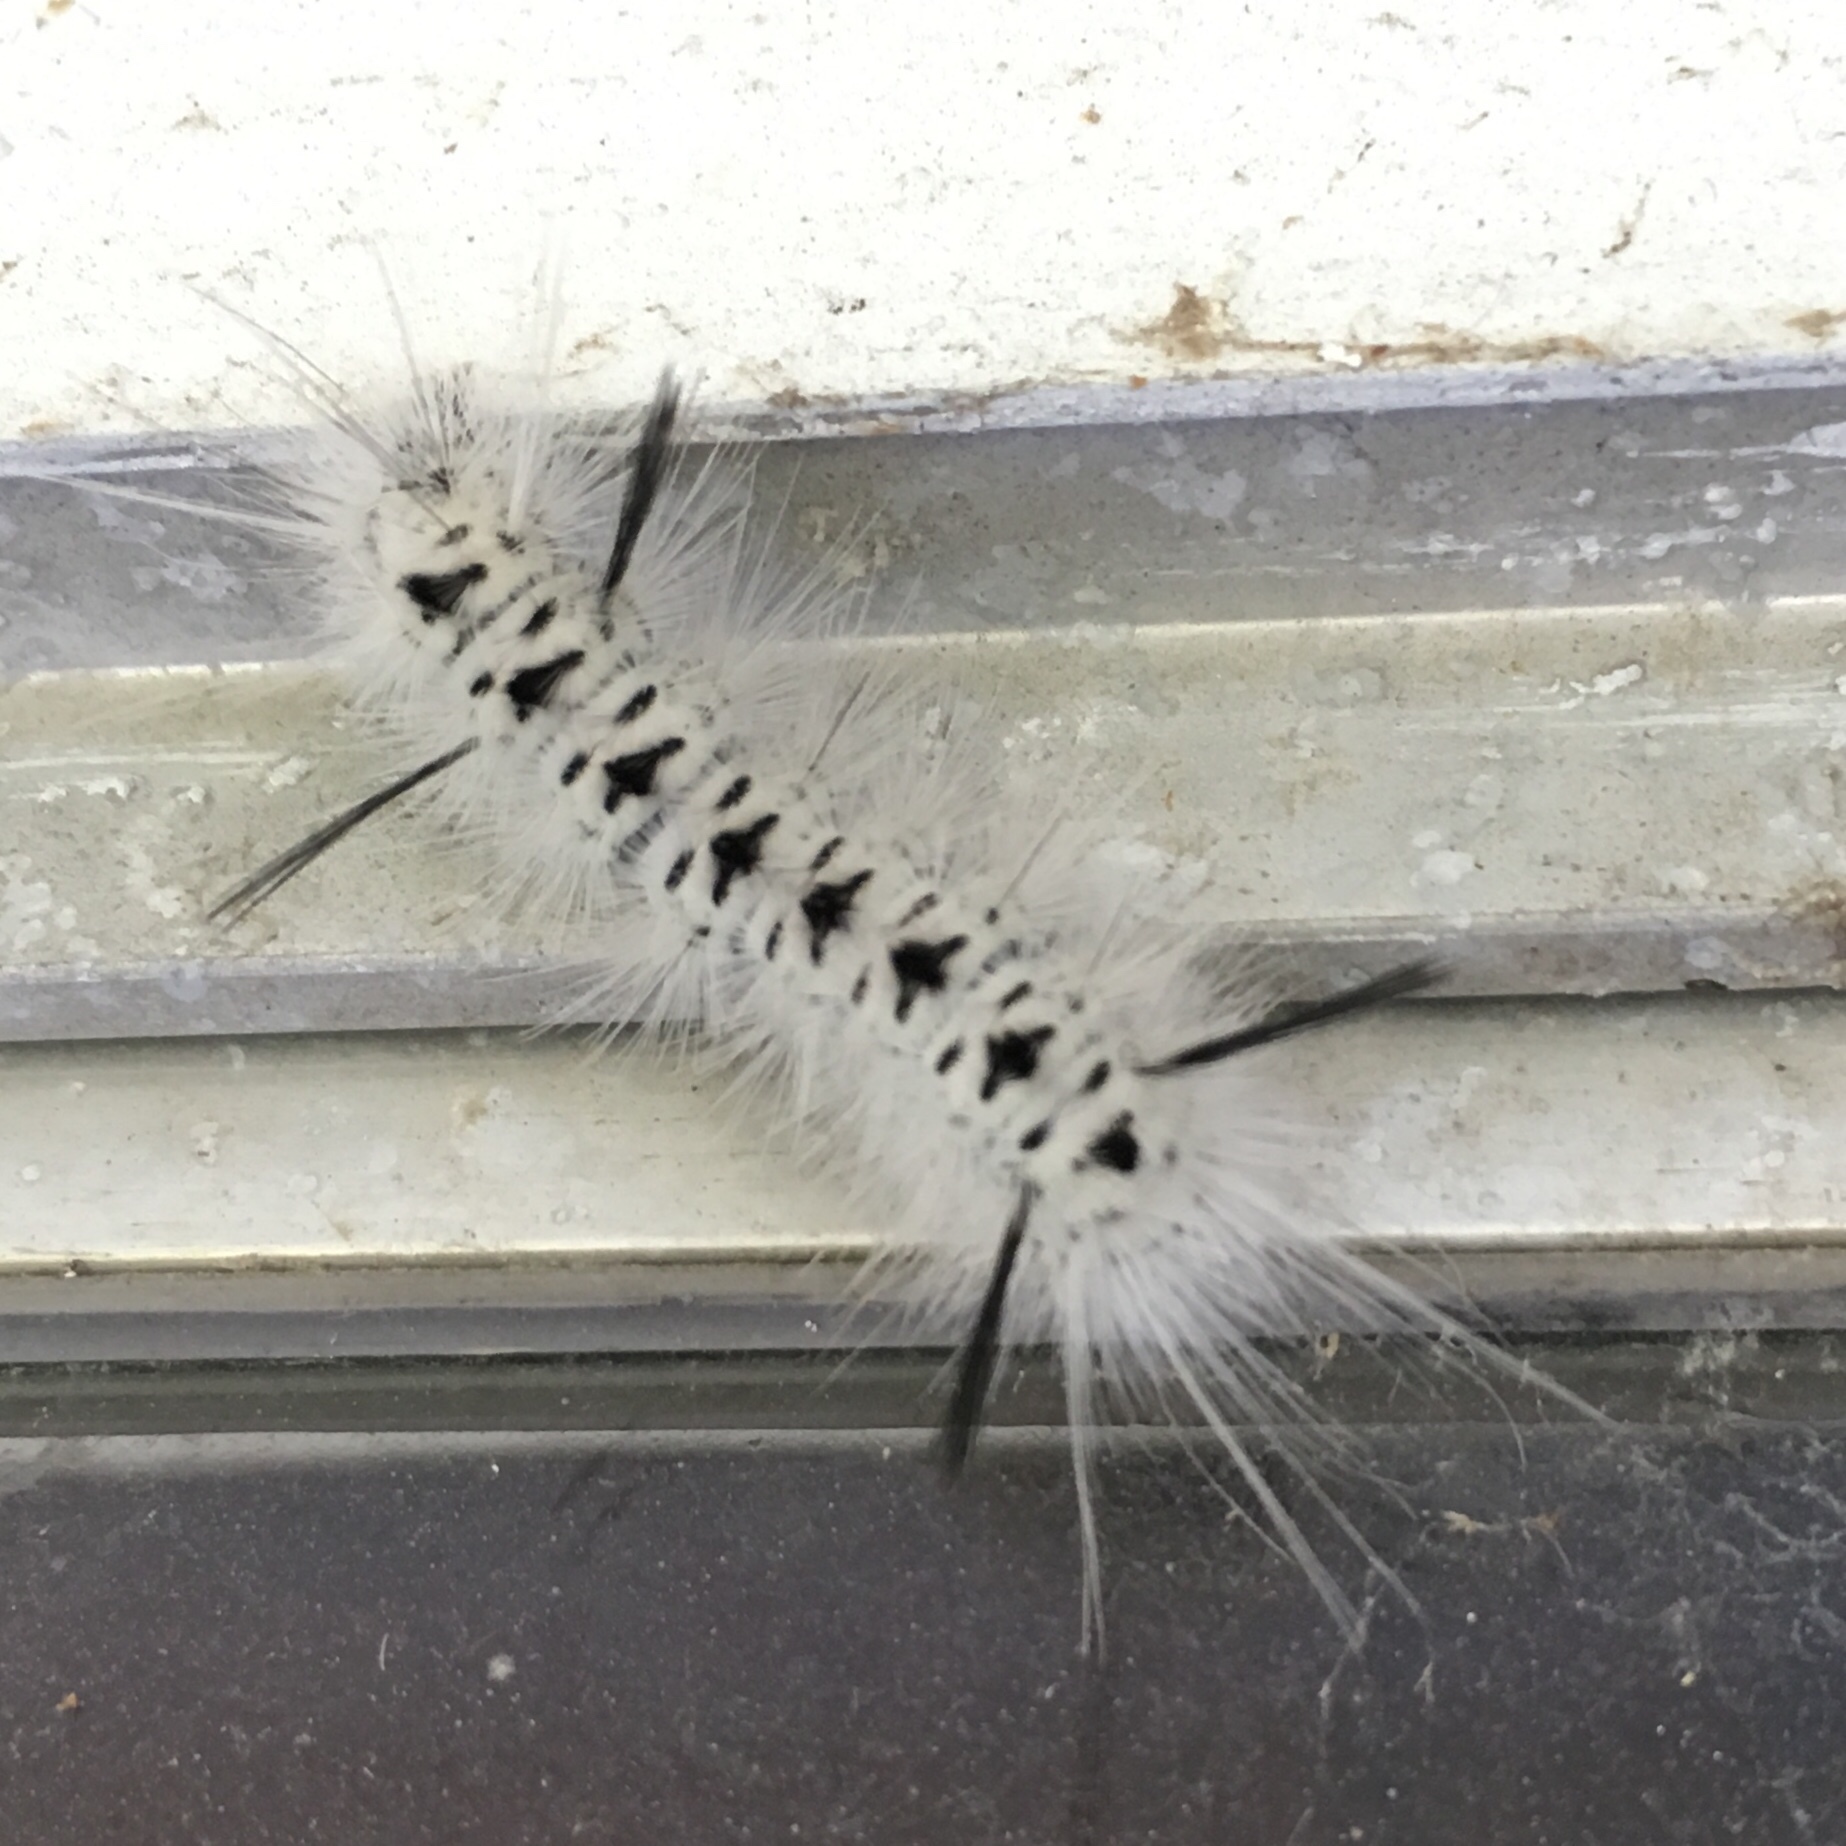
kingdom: Animalia
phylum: Arthropoda
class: Insecta
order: Lepidoptera
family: Erebidae
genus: Lophocampa
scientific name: Lophocampa caryae
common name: Hickory tussock moth
